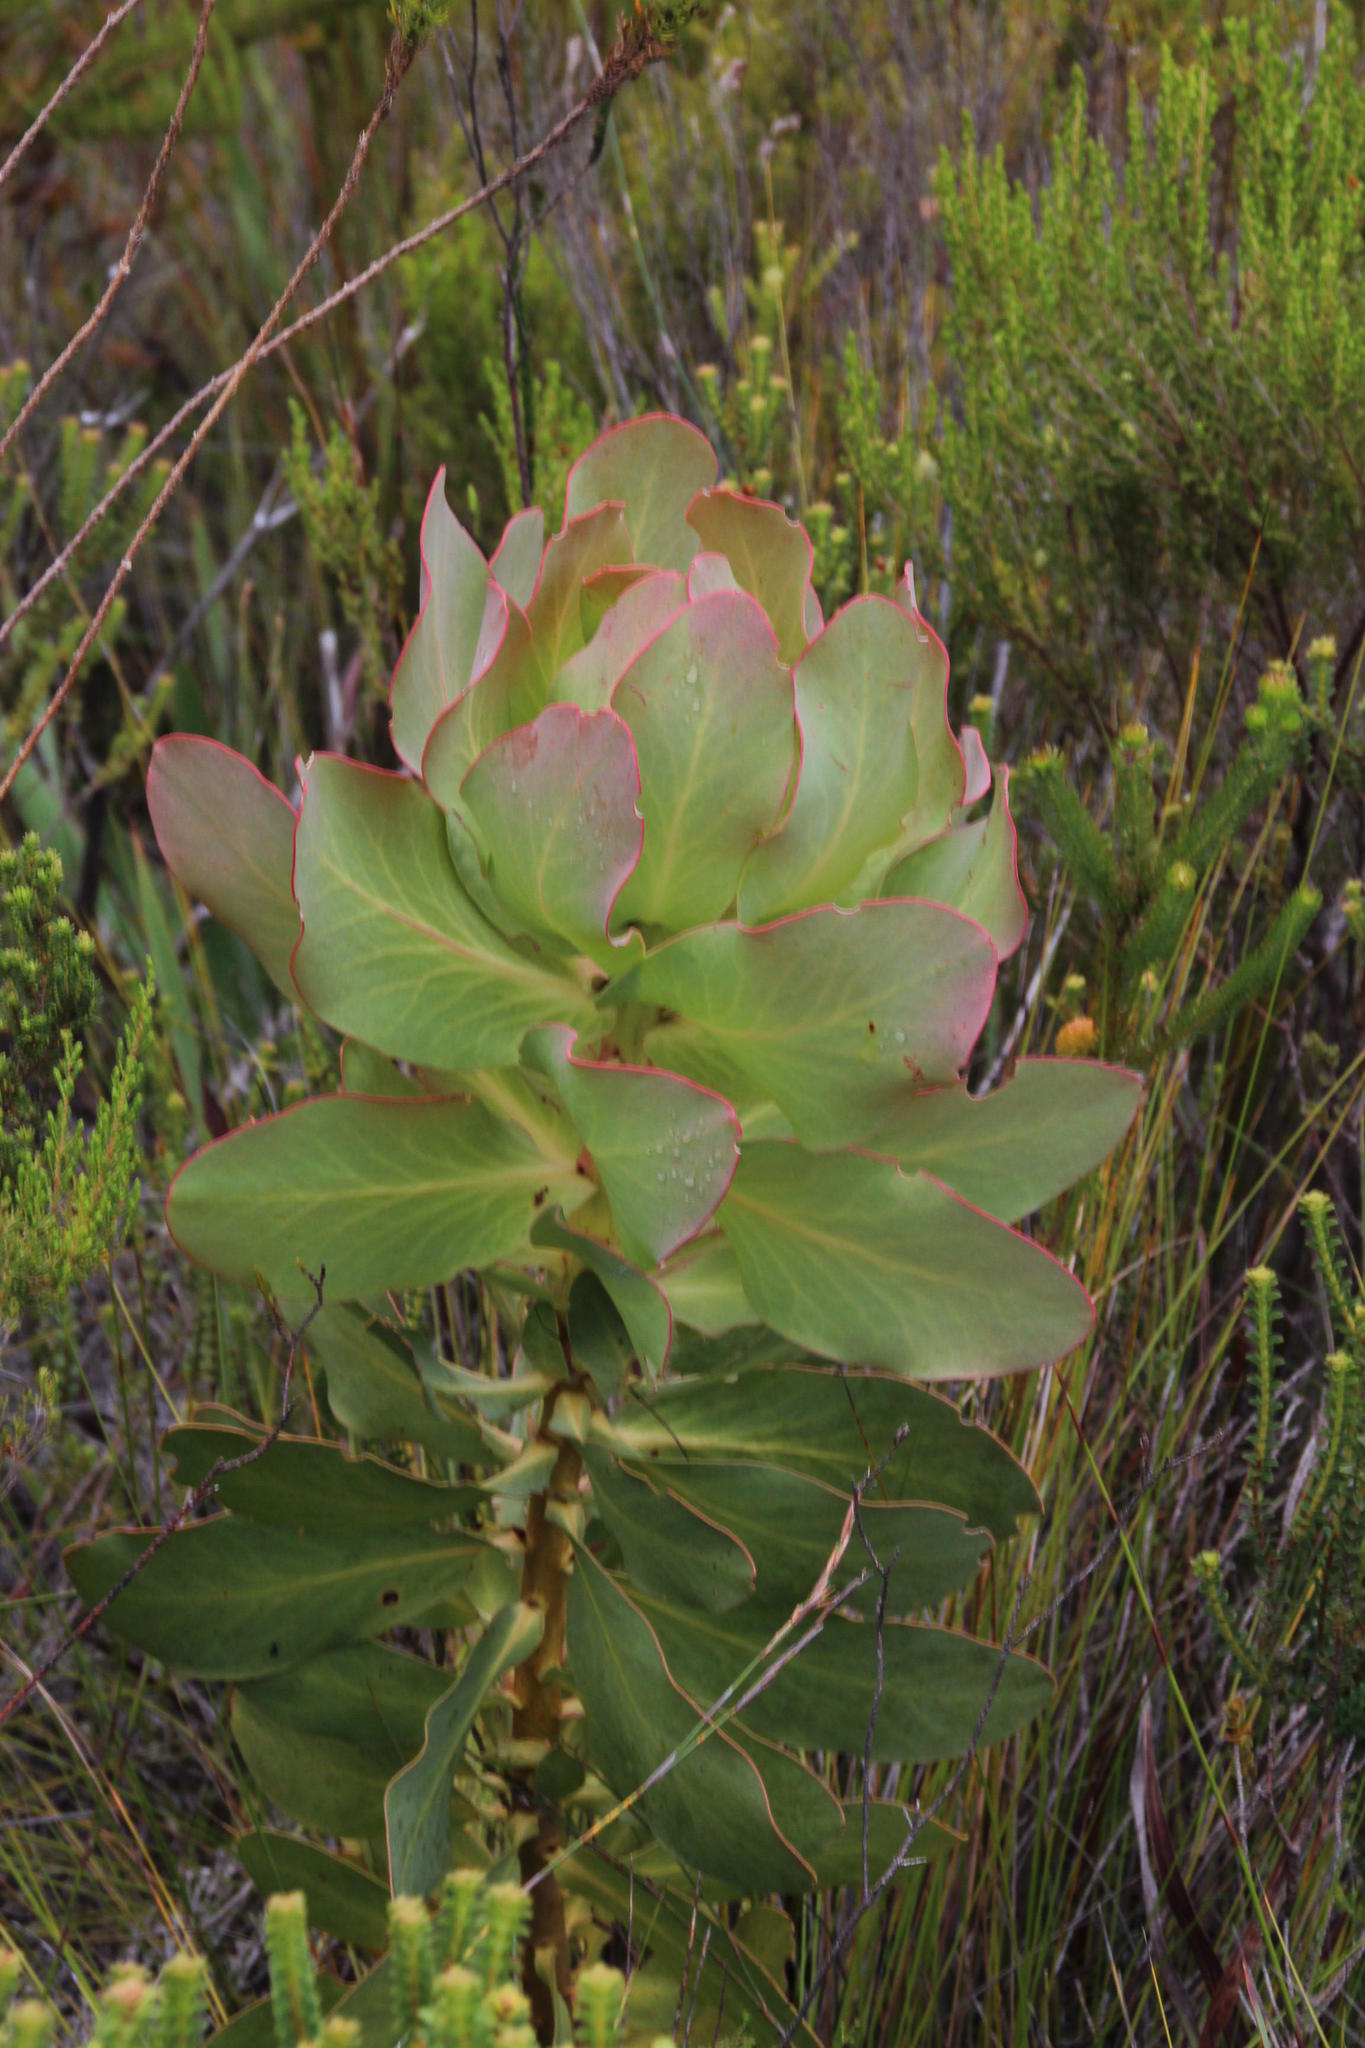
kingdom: Plantae
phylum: Tracheophyta
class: Magnoliopsida
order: Proteales
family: Proteaceae
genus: Protea
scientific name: Protea grandiceps
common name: Red sugarbush
